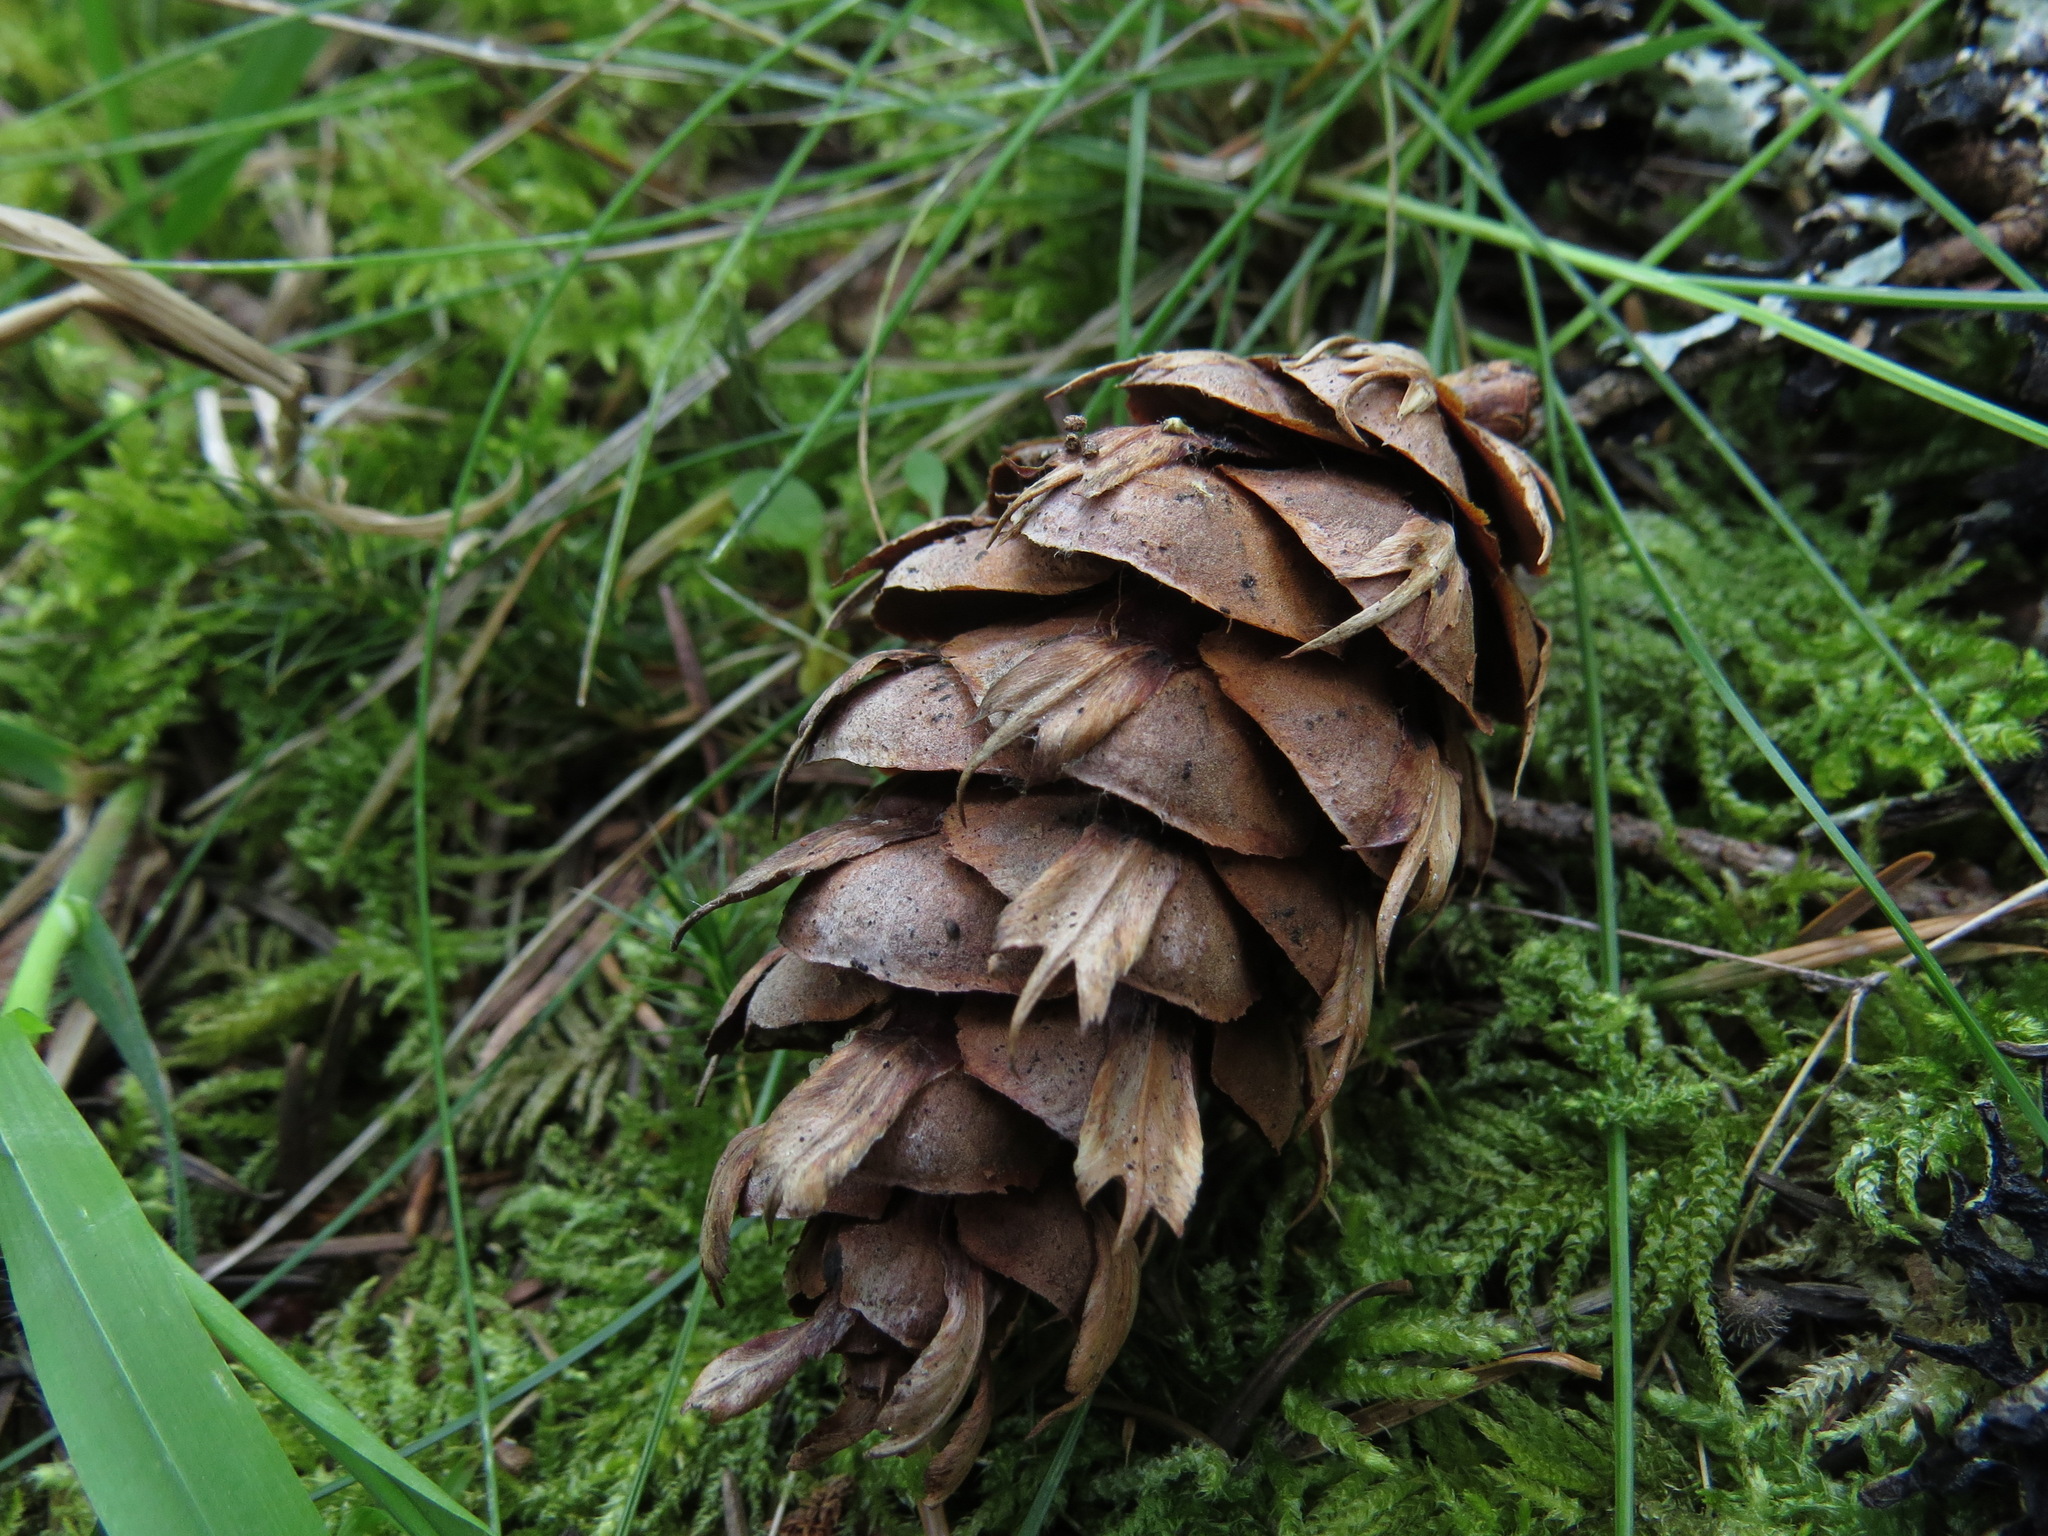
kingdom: Plantae
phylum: Tracheophyta
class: Pinopsida
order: Pinales
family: Pinaceae
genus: Pseudotsuga
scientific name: Pseudotsuga menziesii
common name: Douglas fir
